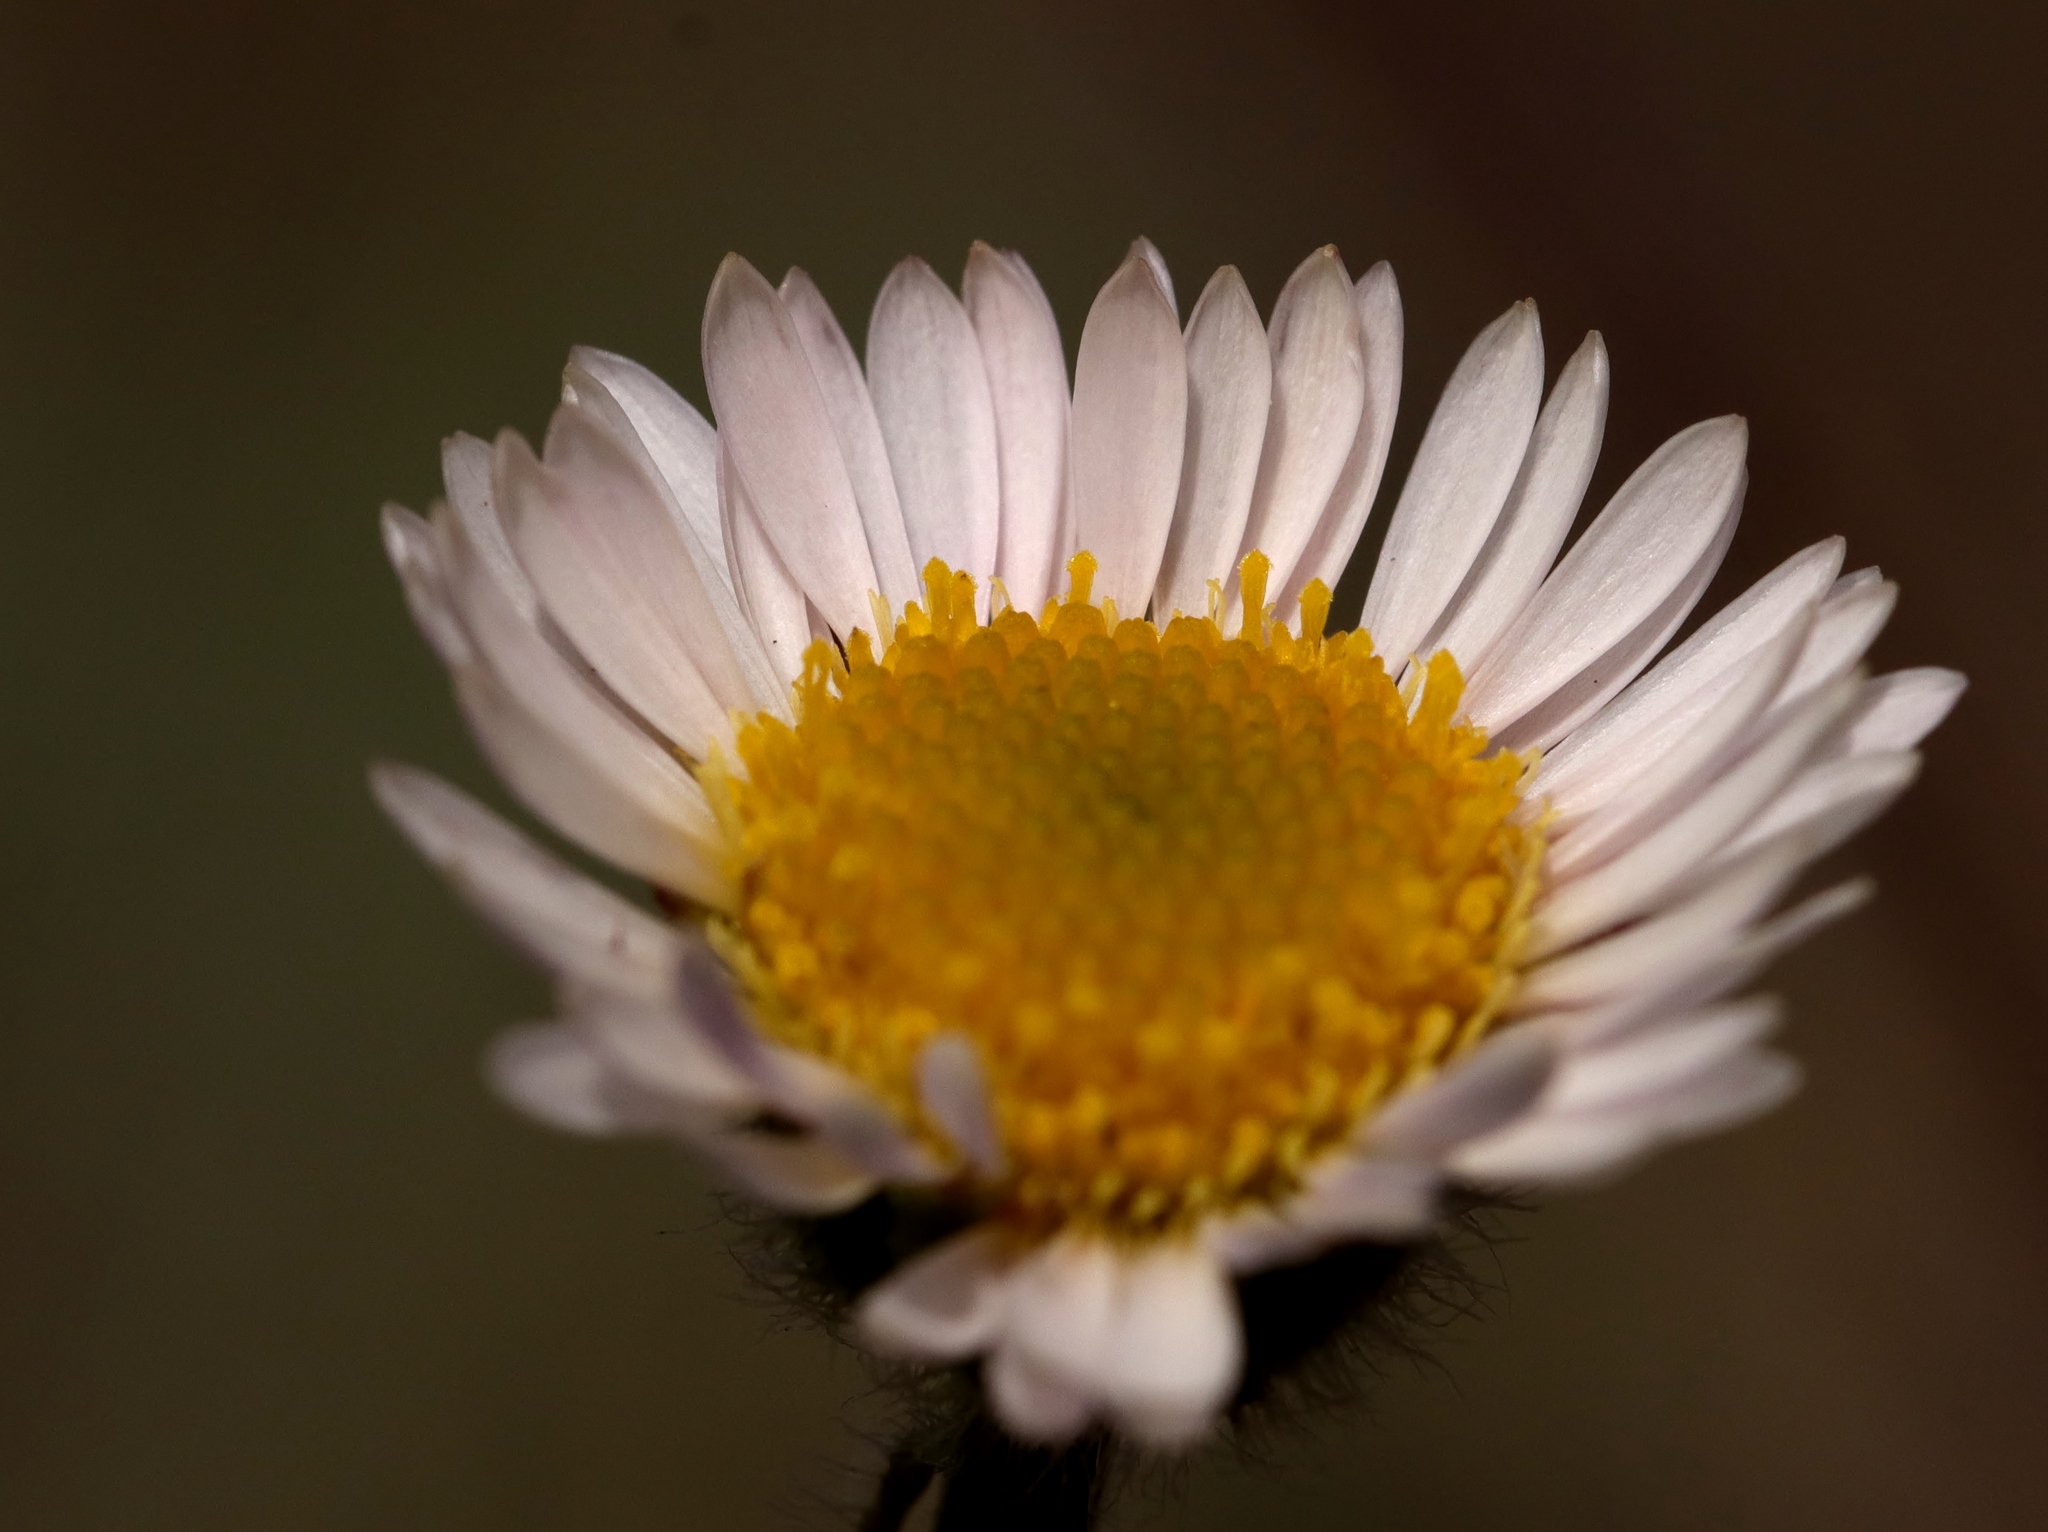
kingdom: Plantae
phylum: Tracheophyta
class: Magnoliopsida
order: Asterales
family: Asteraceae
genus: Erigeron
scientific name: Erigeron compositus
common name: Dwarf mountain fleabane
